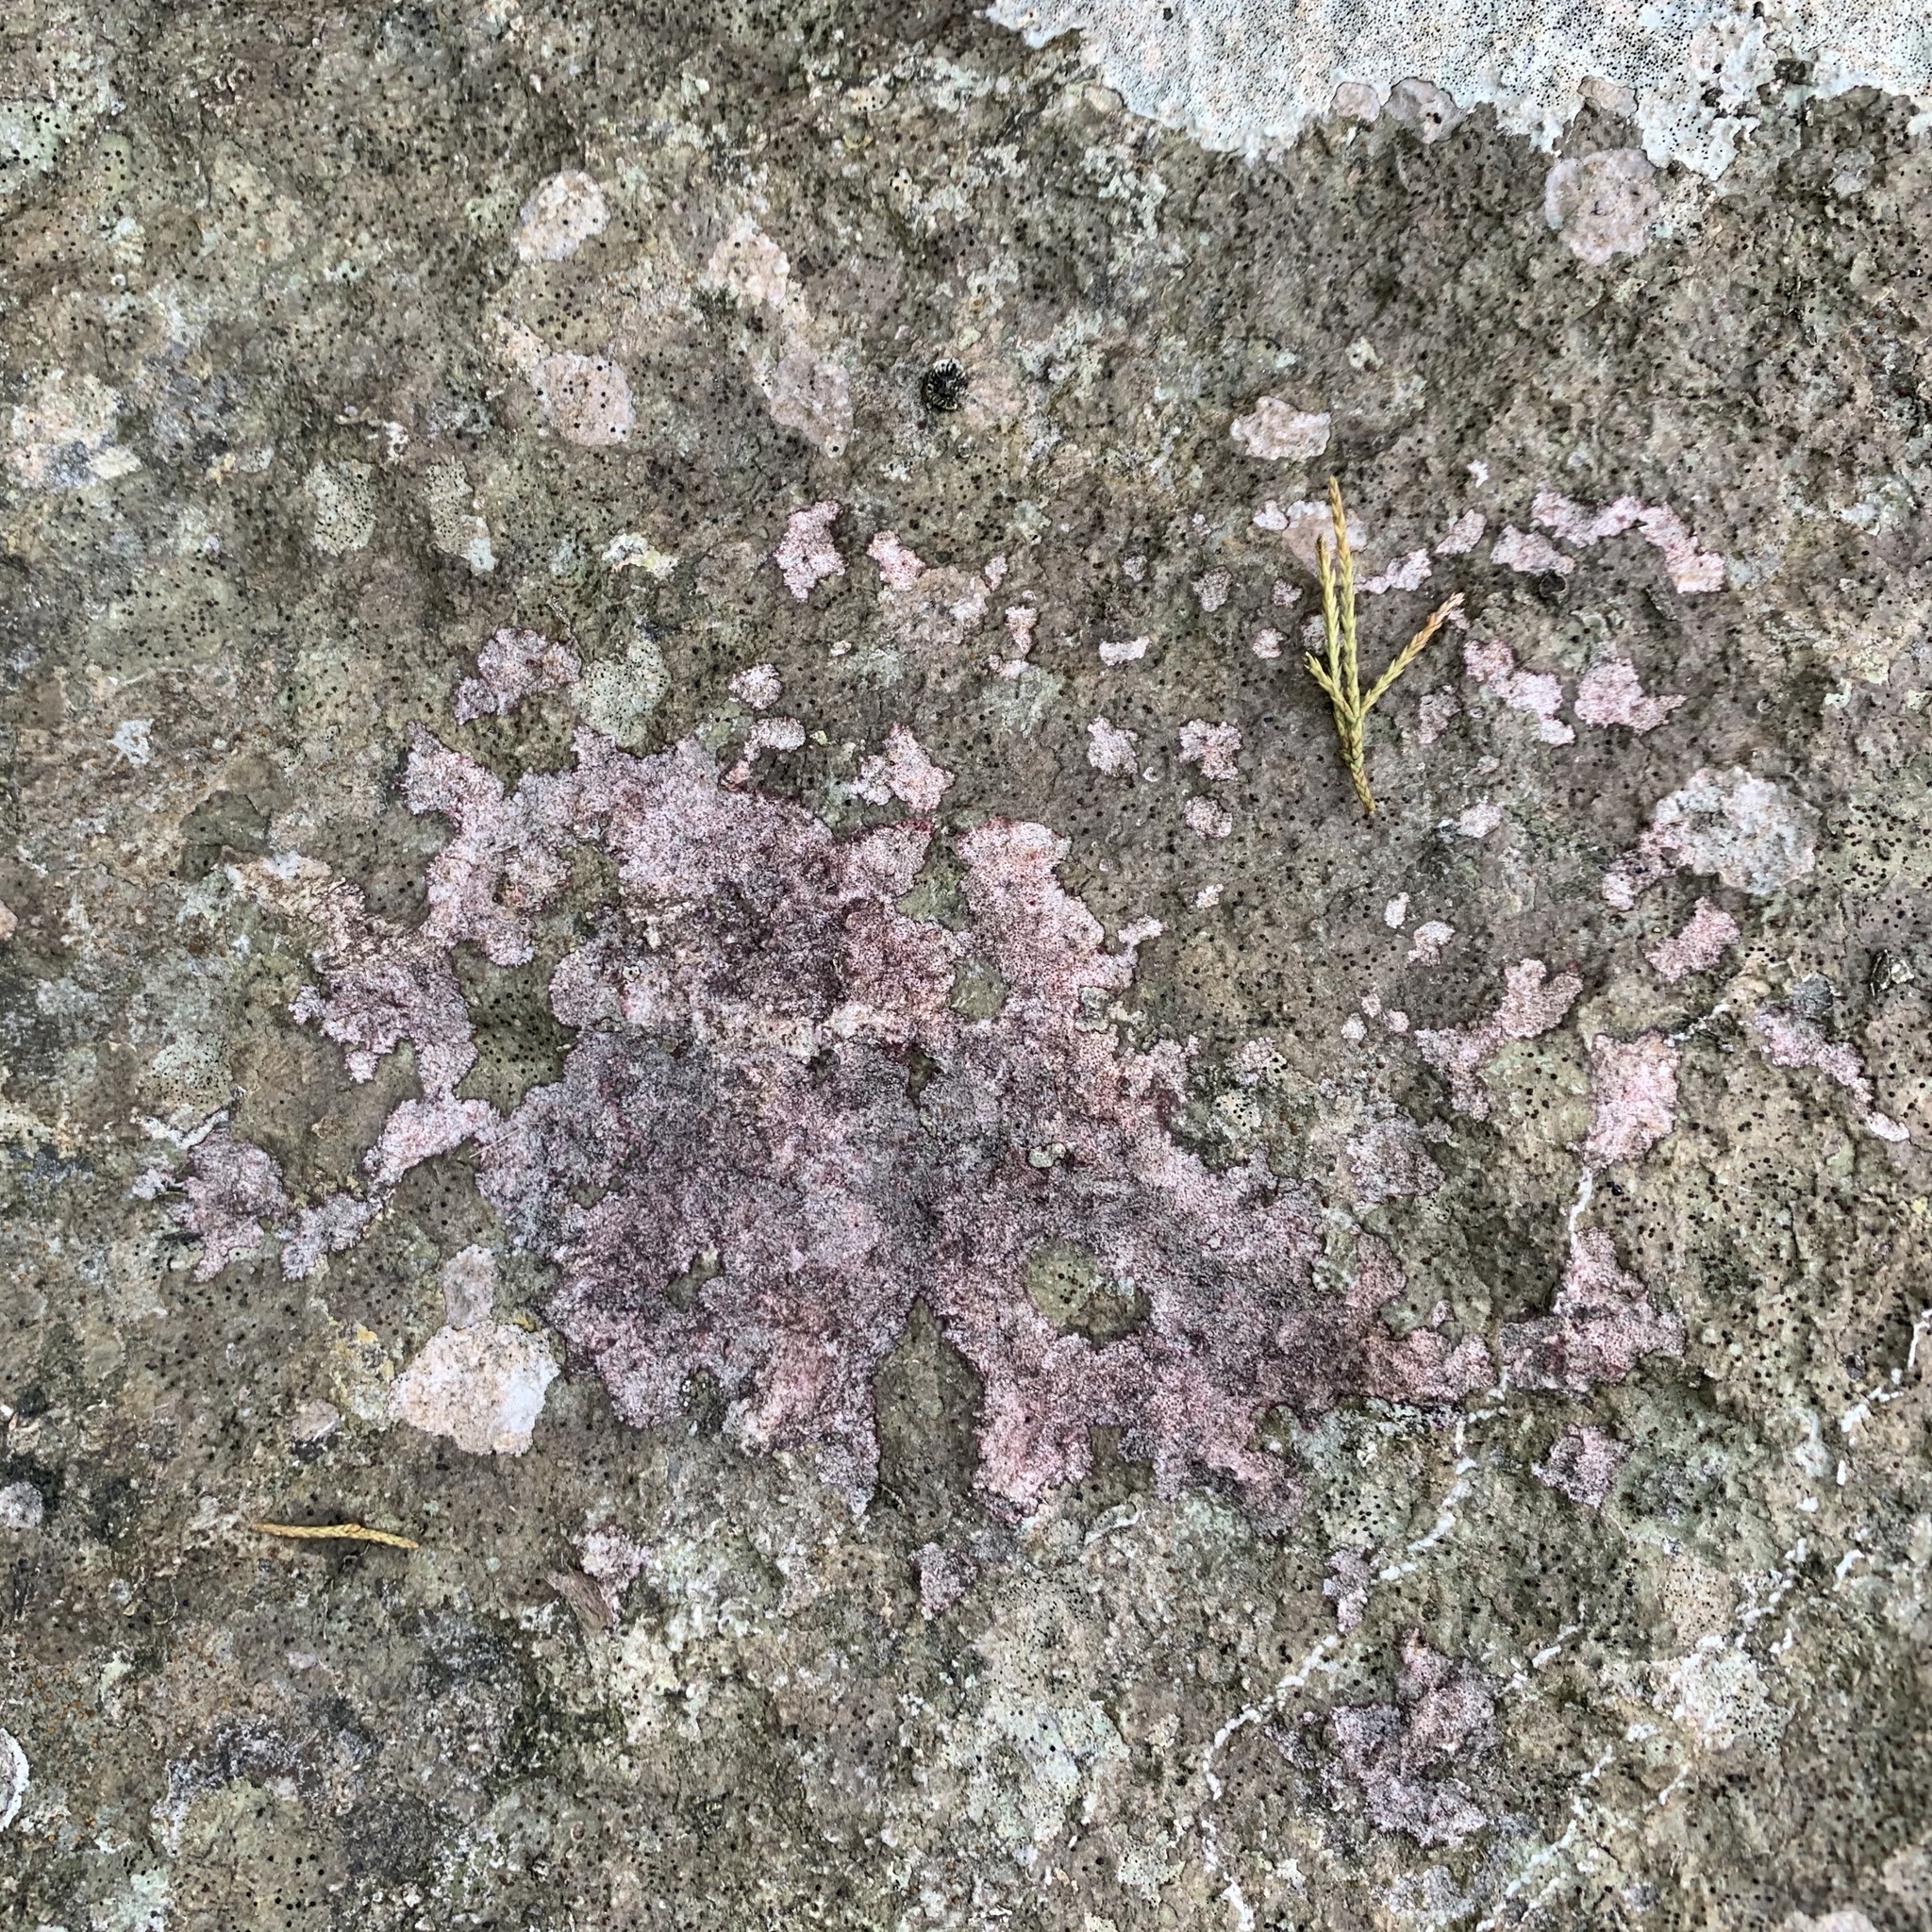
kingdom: Fungi
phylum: Ascomycota
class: Eurotiomycetes
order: Verrucariales
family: Verrucariaceae
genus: Bagliettoa
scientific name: Bagliettoa marmorea
